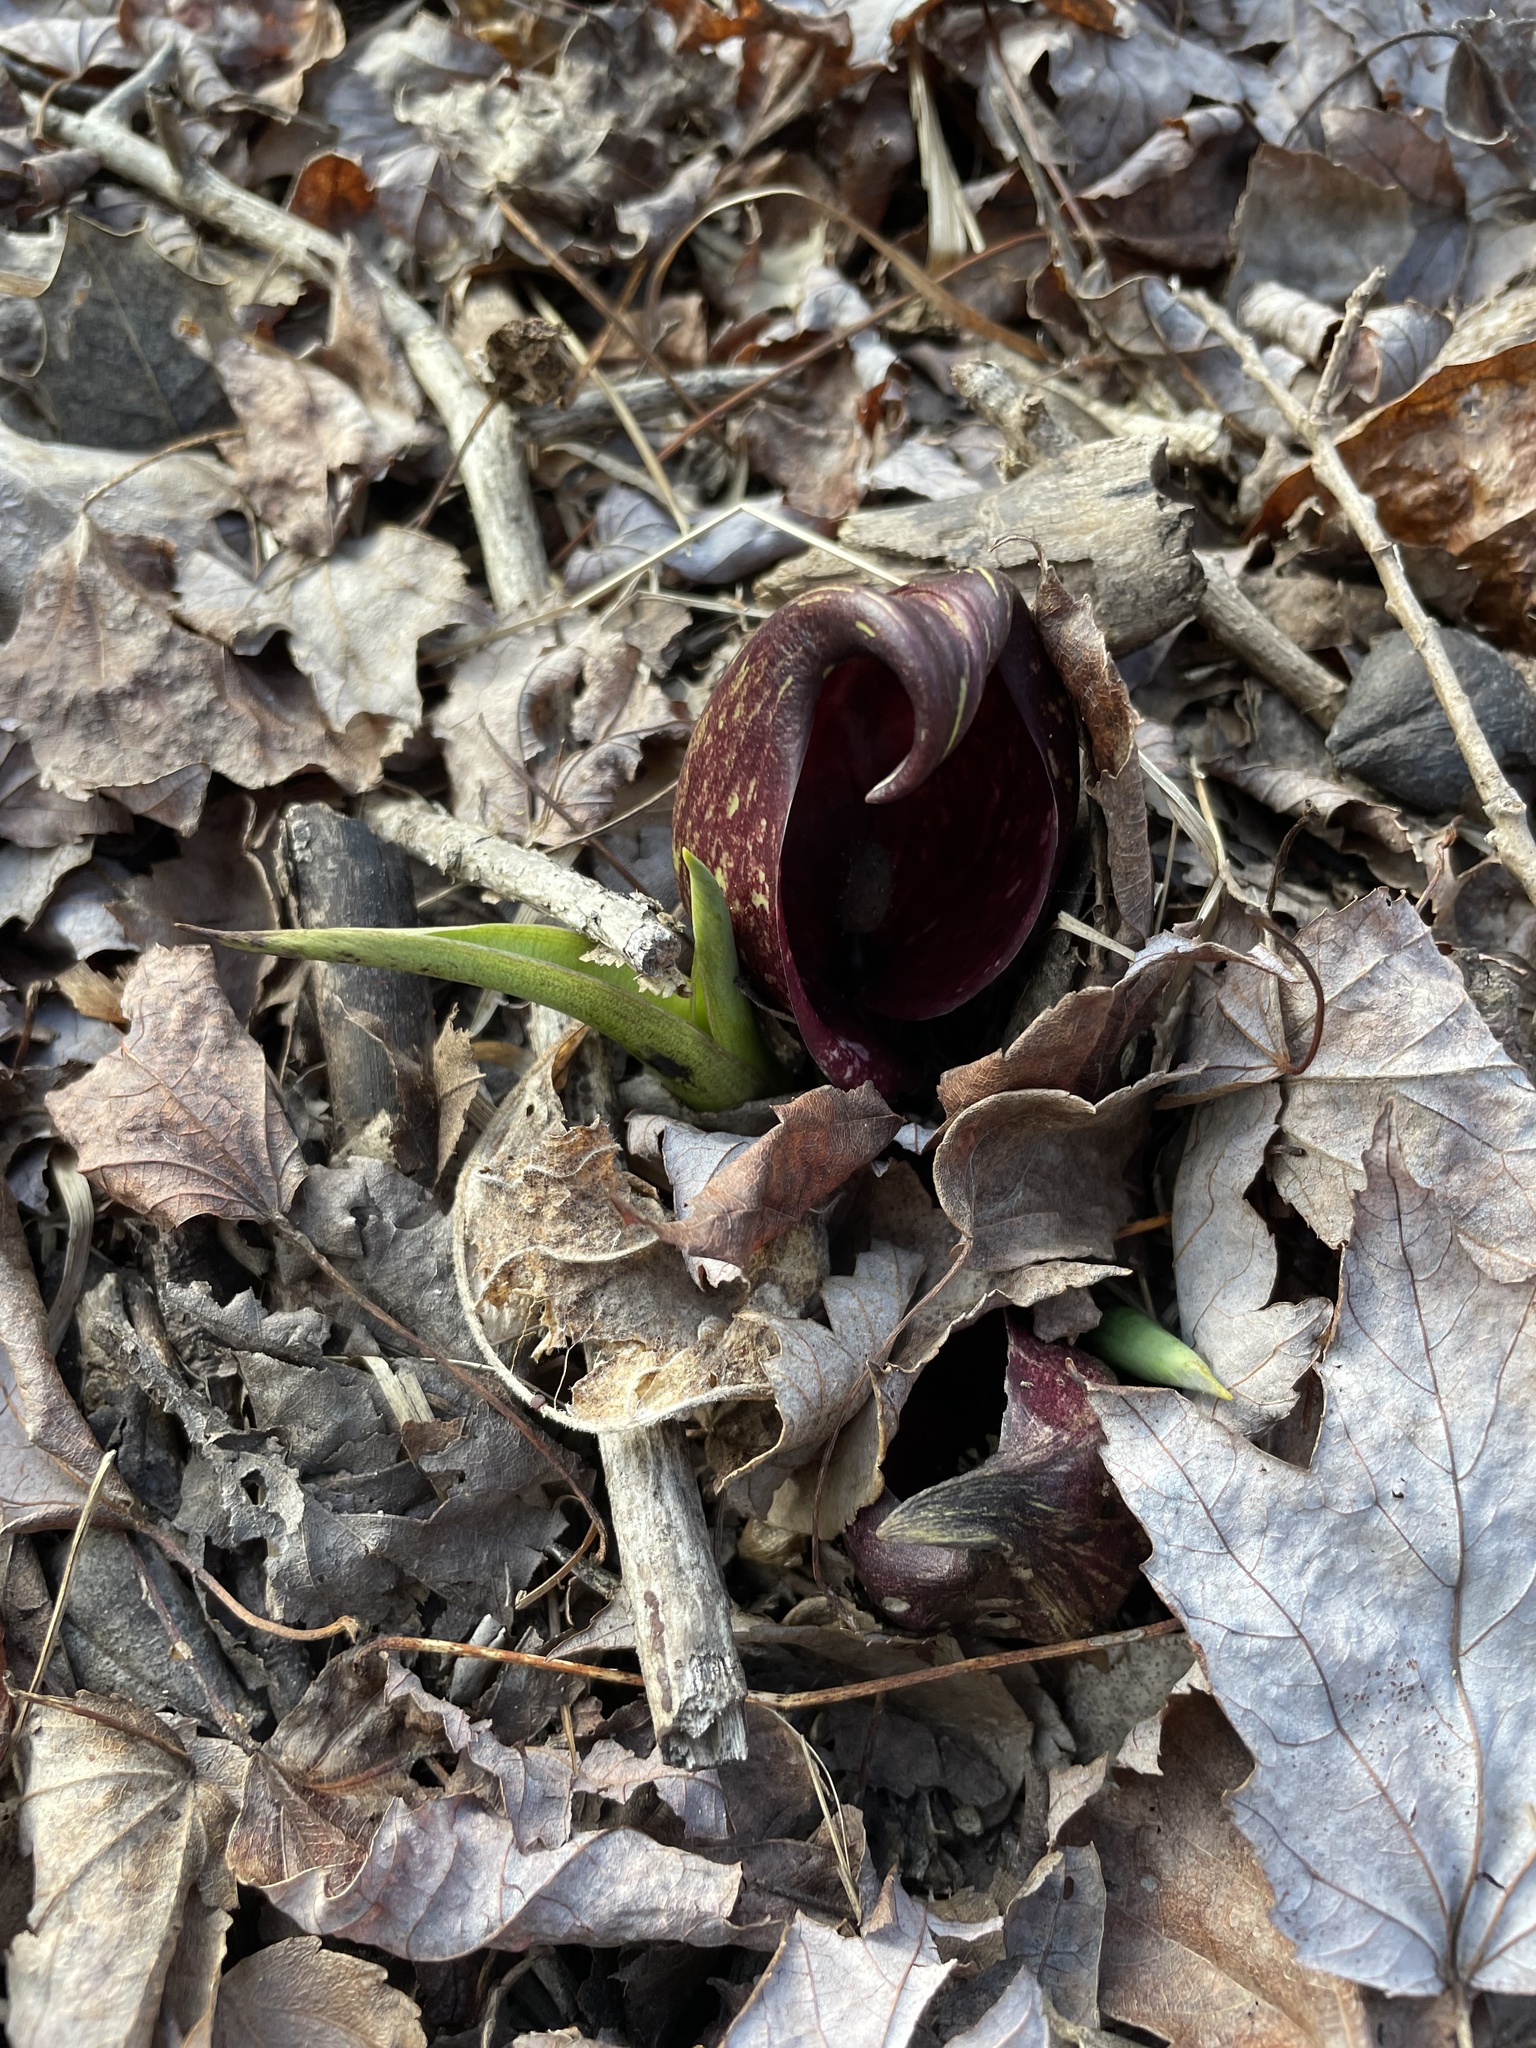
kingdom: Plantae
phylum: Tracheophyta
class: Liliopsida
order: Alismatales
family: Araceae
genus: Symplocarpus
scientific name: Symplocarpus foetidus
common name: Eastern skunk cabbage
